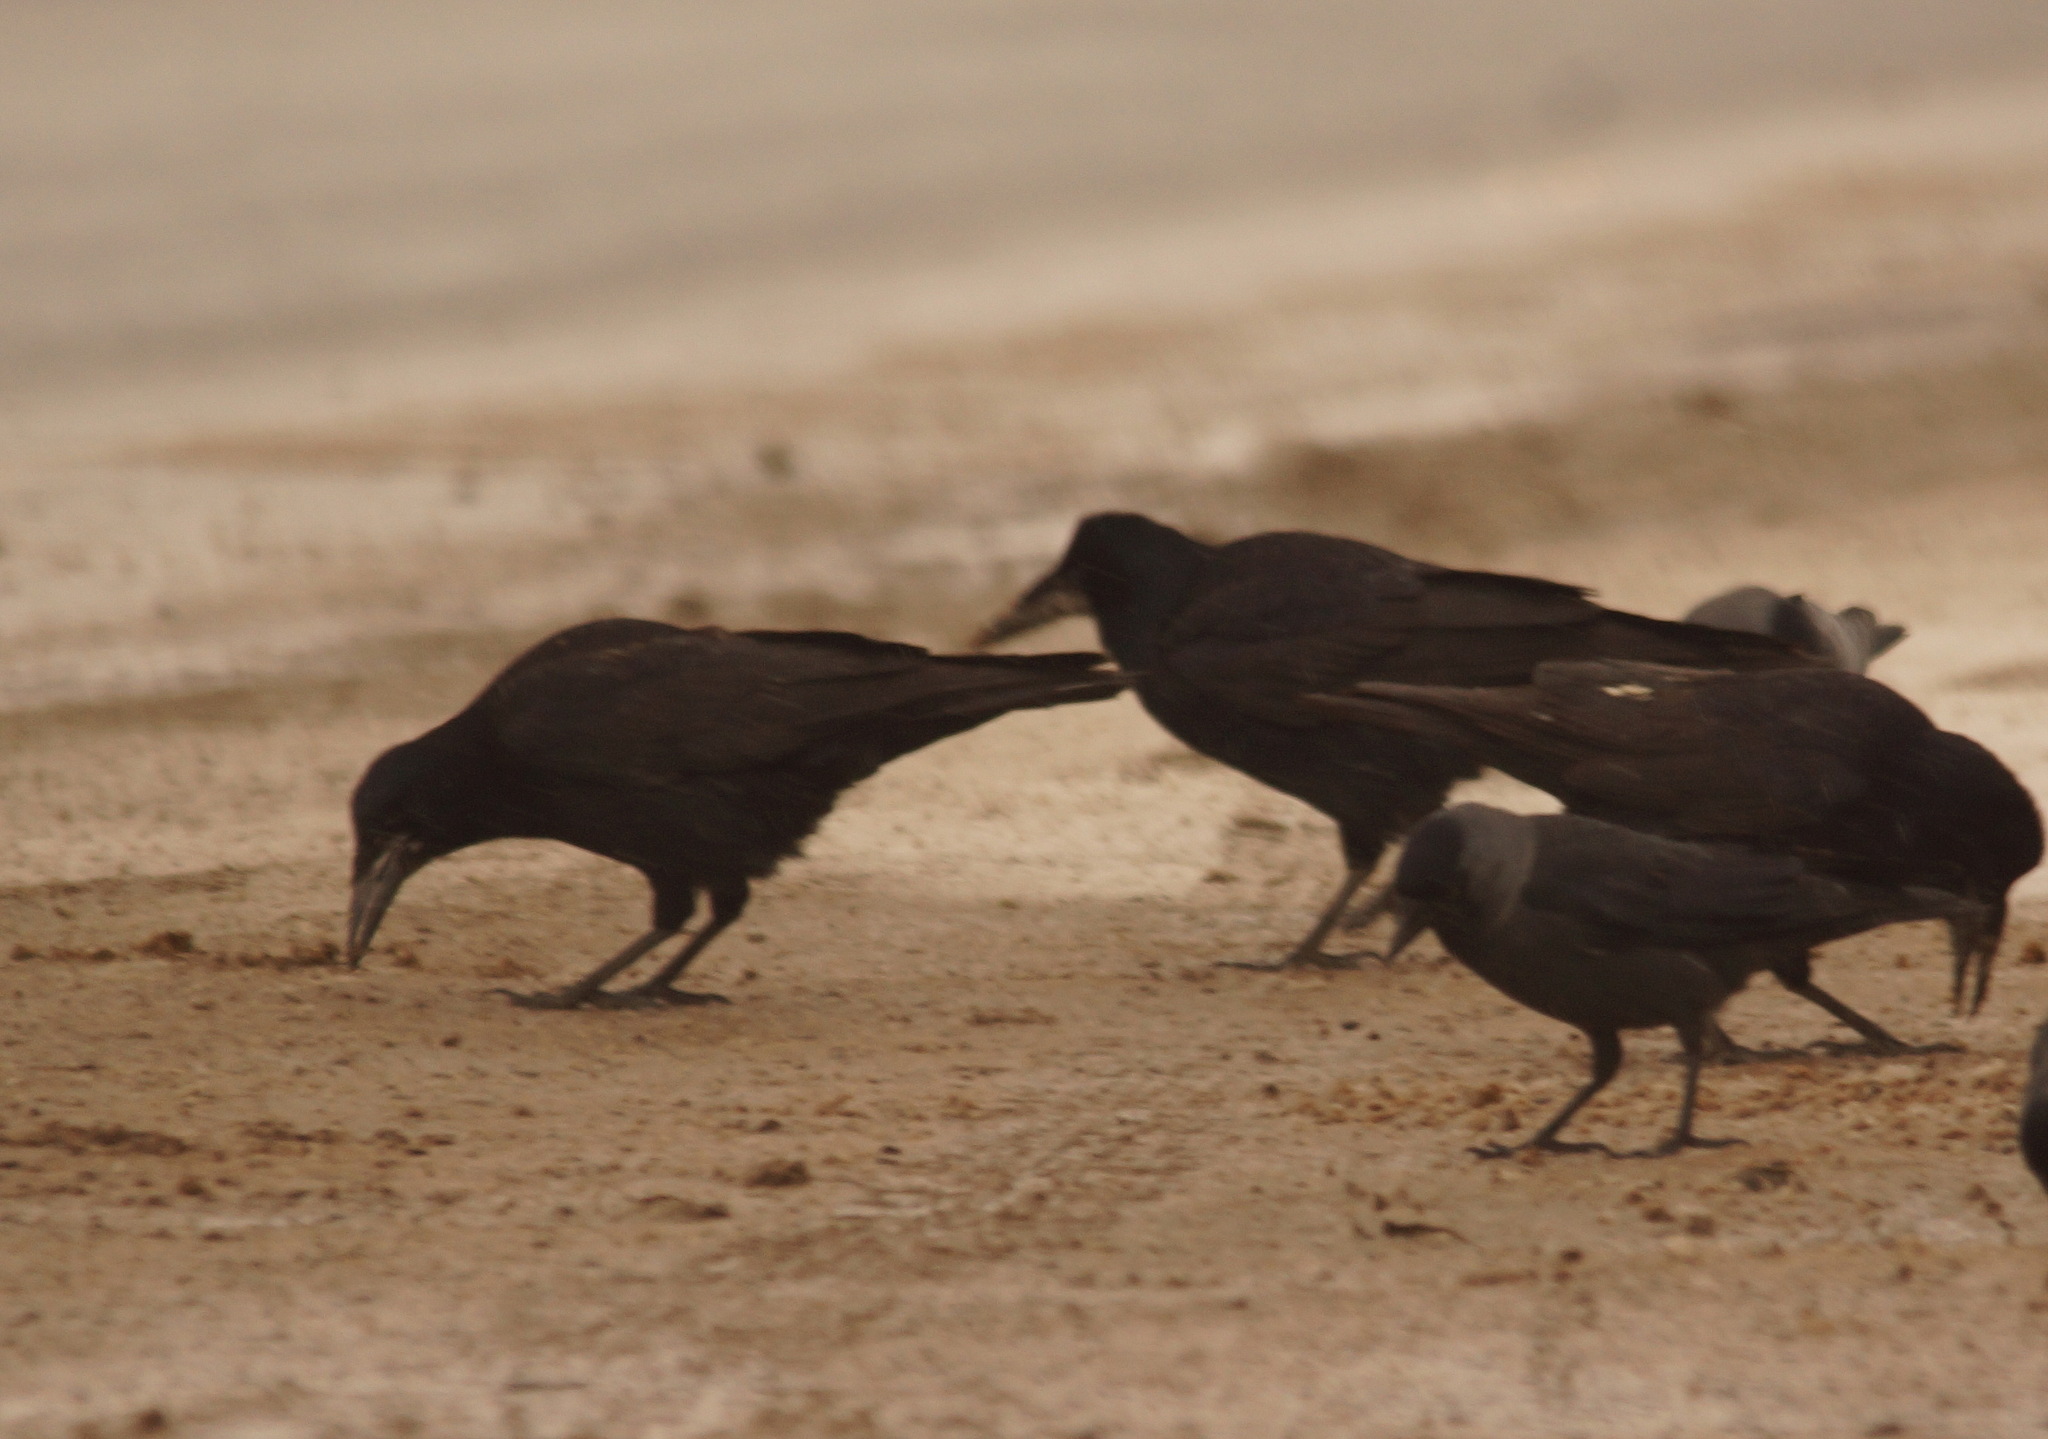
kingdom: Animalia
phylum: Chordata
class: Aves
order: Passeriformes
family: Corvidae
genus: Corvus
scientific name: Corvus frugilegus
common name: Rook
